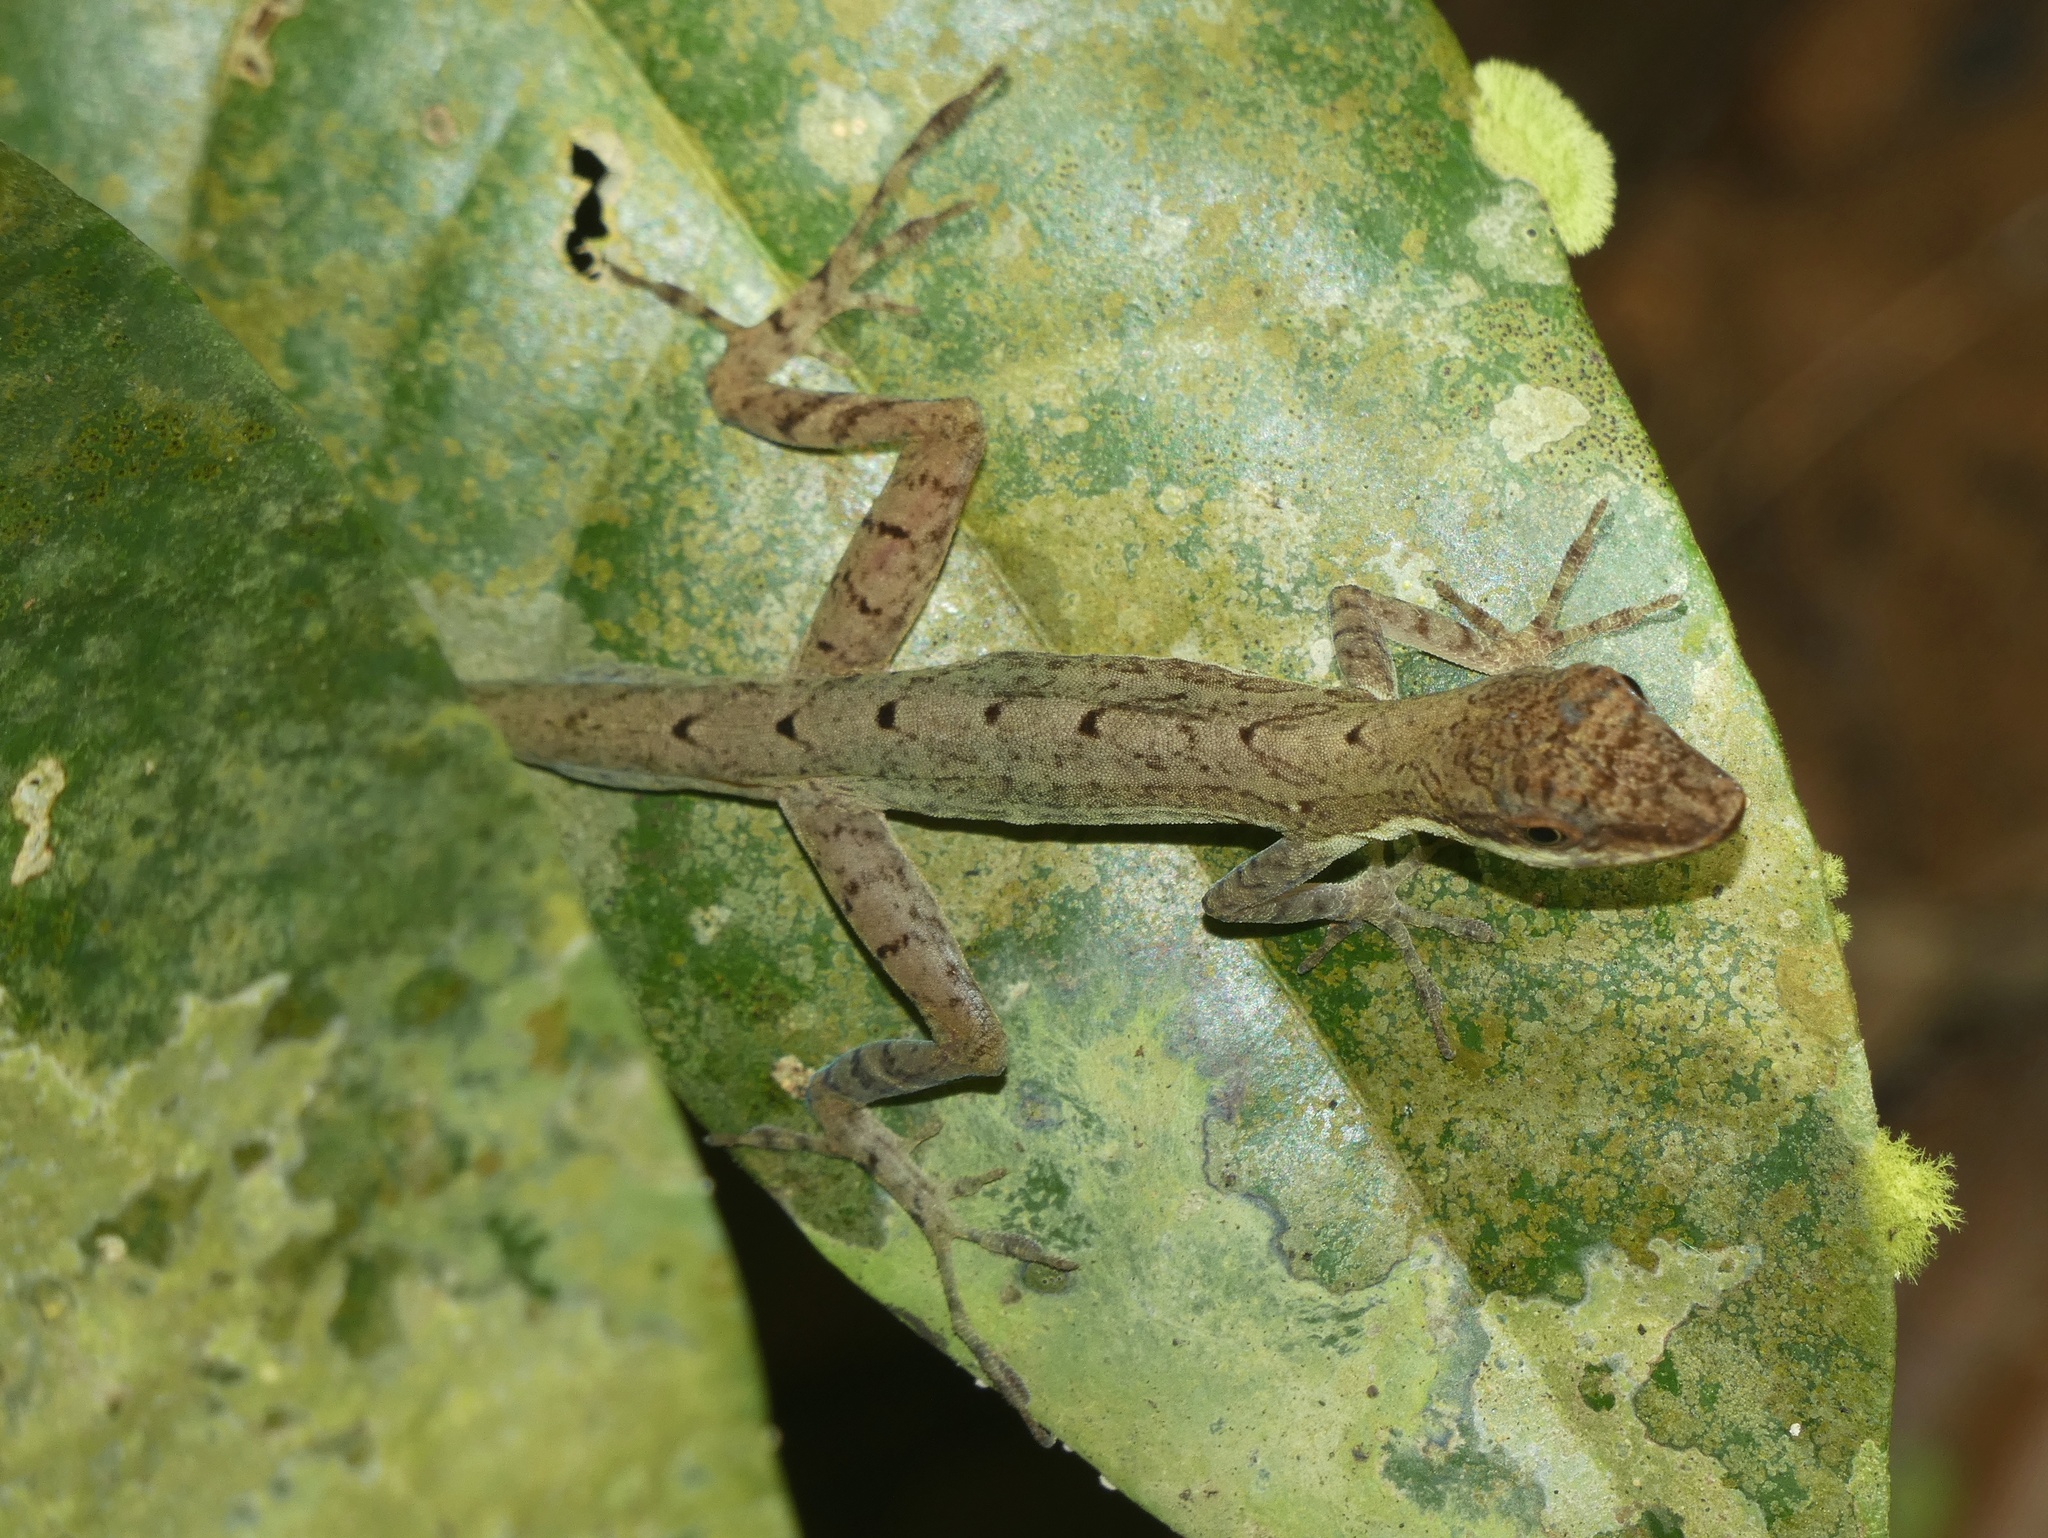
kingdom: Animalia
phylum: Chordata
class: Squamata
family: Dactyloidae
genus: Anolis
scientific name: Anolis apletophallus
